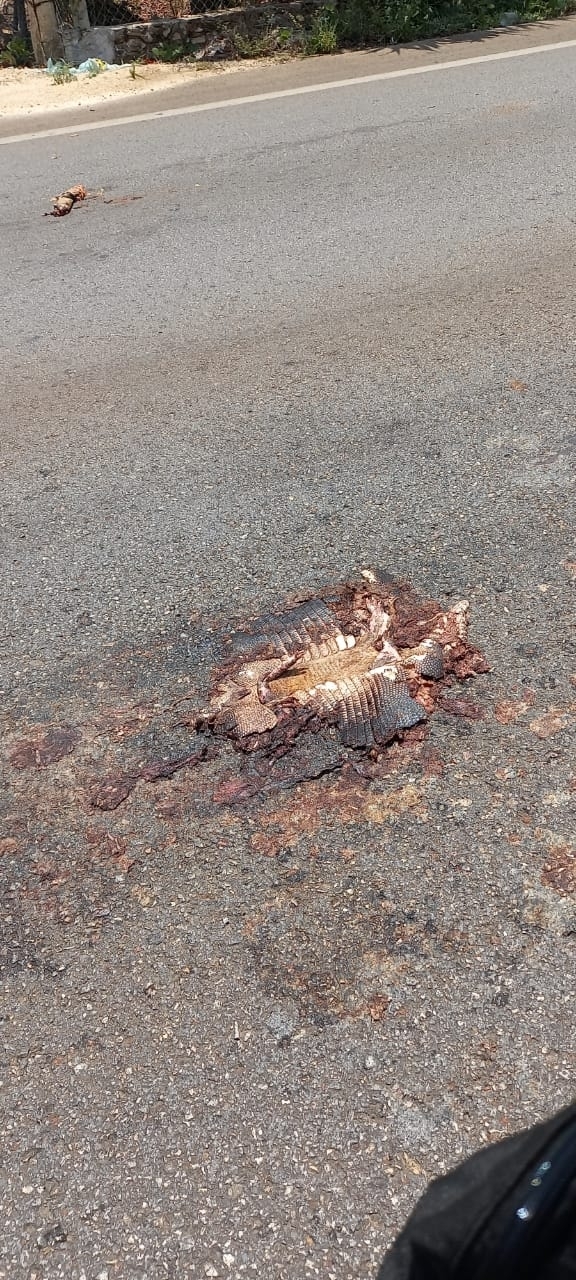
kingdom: Animalia
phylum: Chordata
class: Mammalia
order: Cingulata
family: Dasypodidae
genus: Dasypus
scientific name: Dasypus novemcinctus
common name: Nine-banded armadillo
